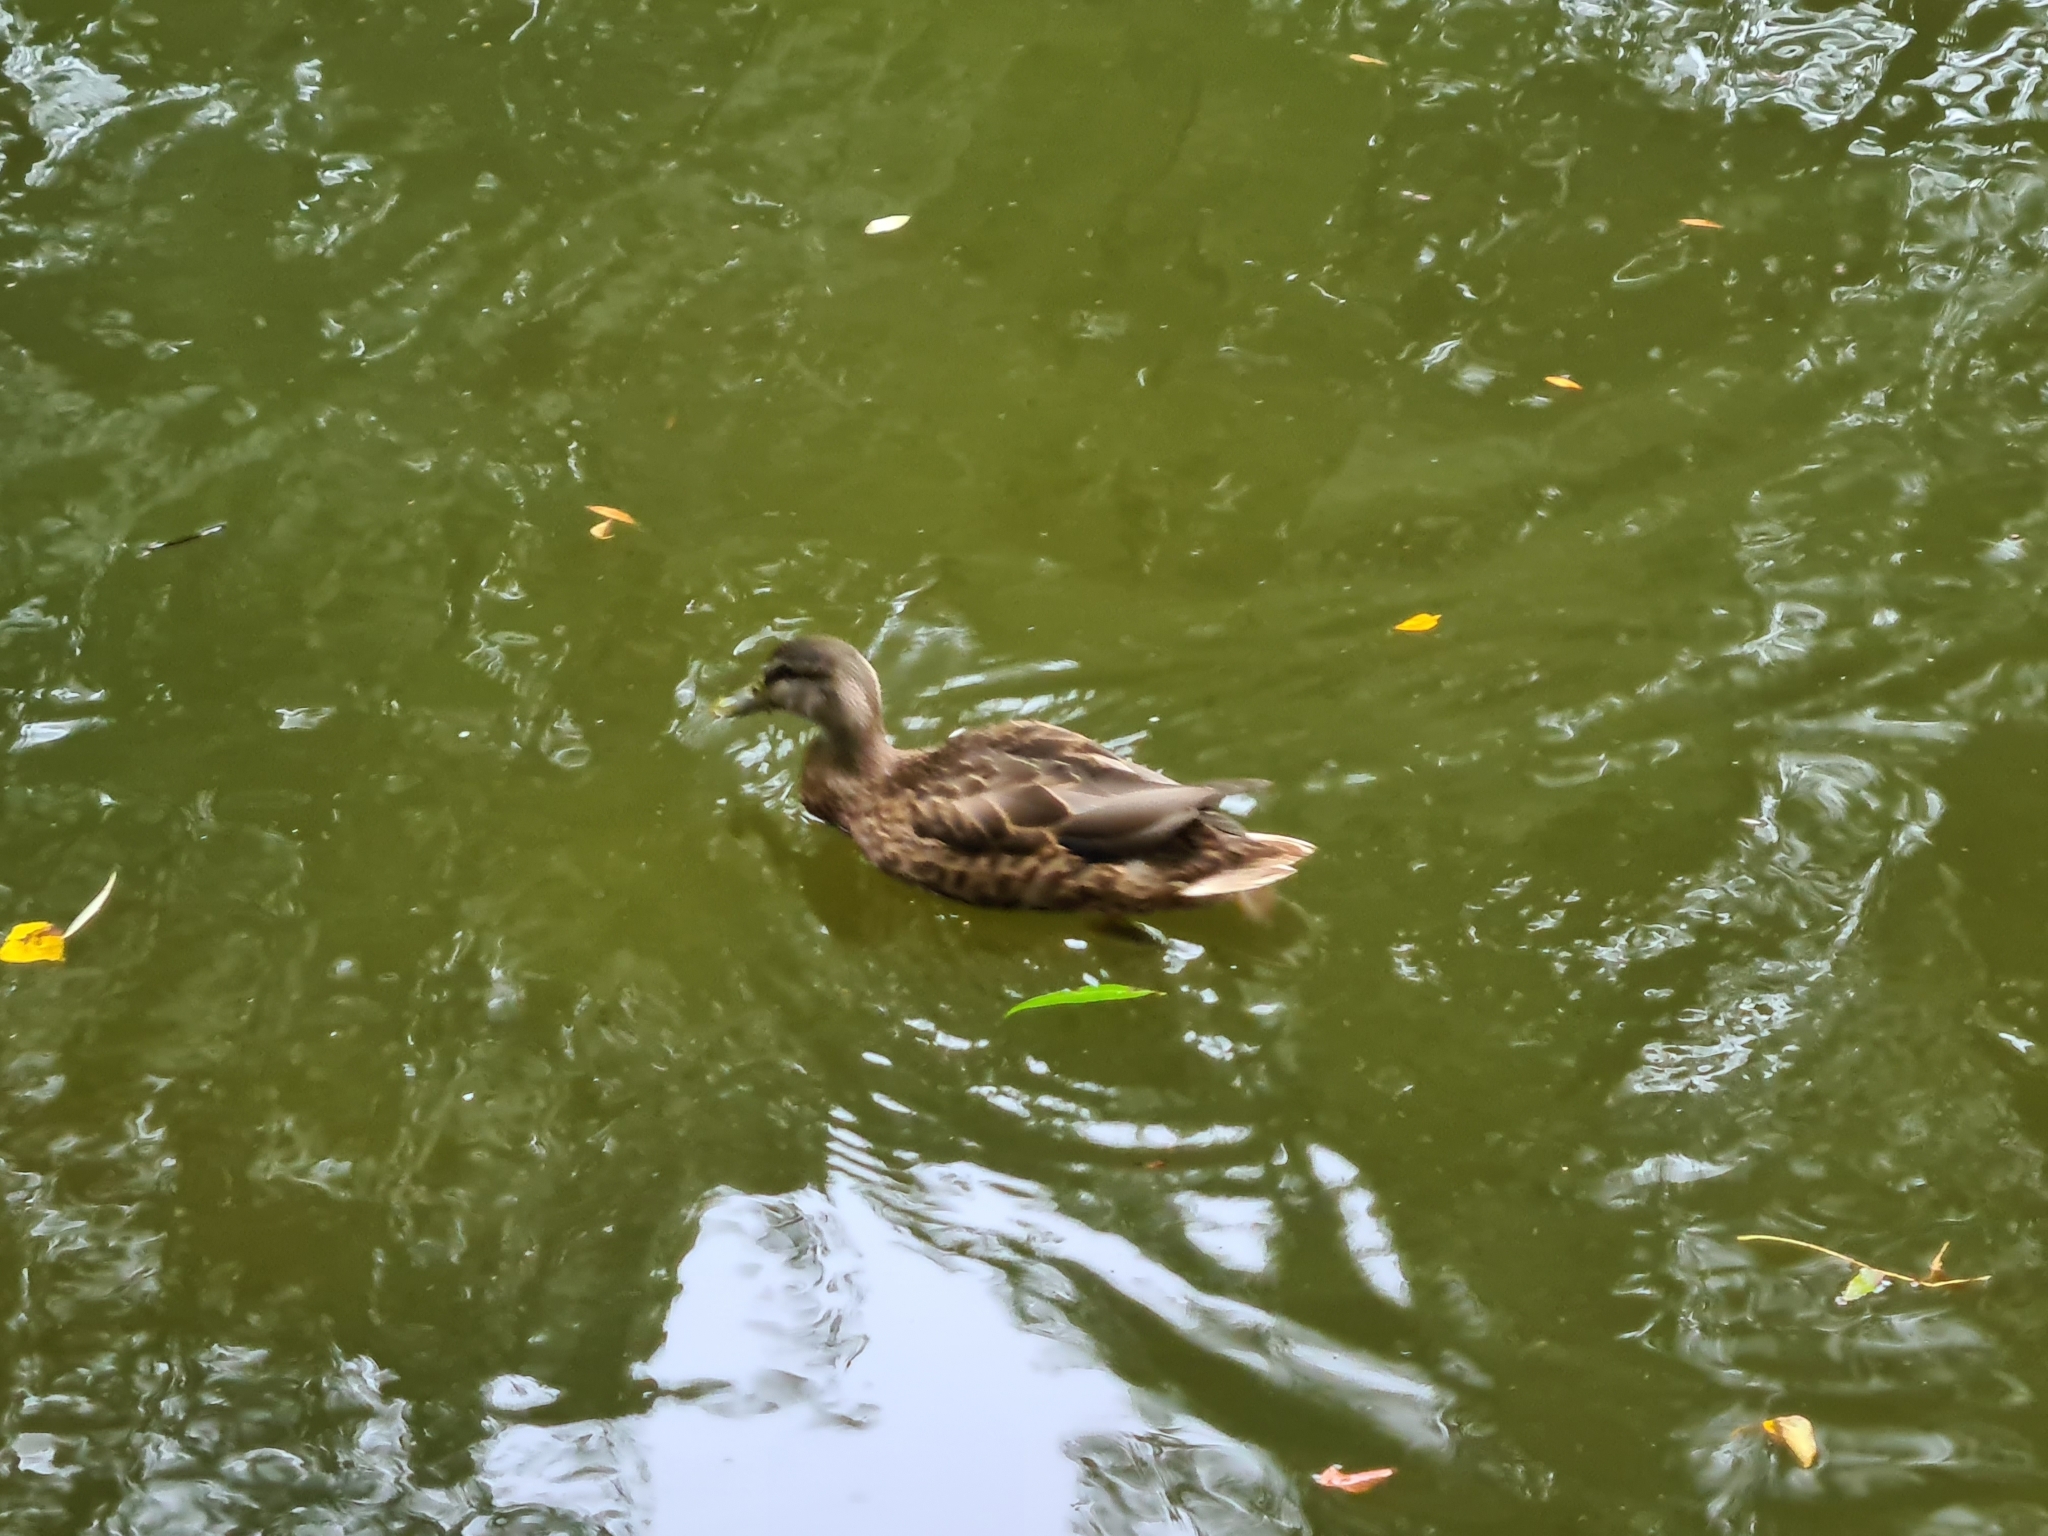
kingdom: Animalia
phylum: Chordata
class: Aves
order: Anseriformes
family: Anatidae
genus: Anas
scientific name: Anas platyrhynchos
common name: Mallard
